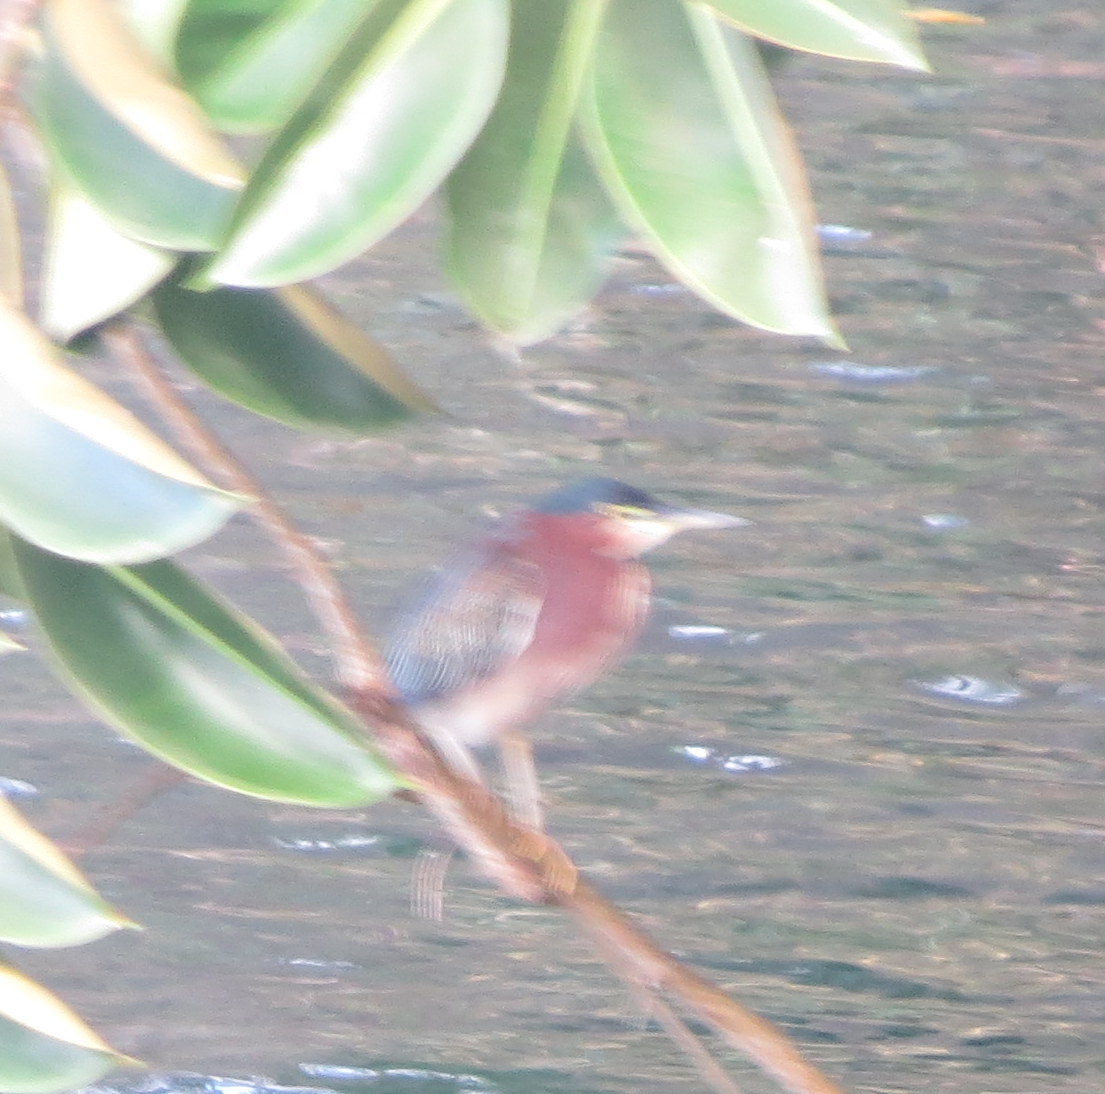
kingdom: Animalia
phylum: Chordata
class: Aves
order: Pelecaniformes
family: Ardeidae
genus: Butorides
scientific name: Butorides virescens
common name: Green heron
